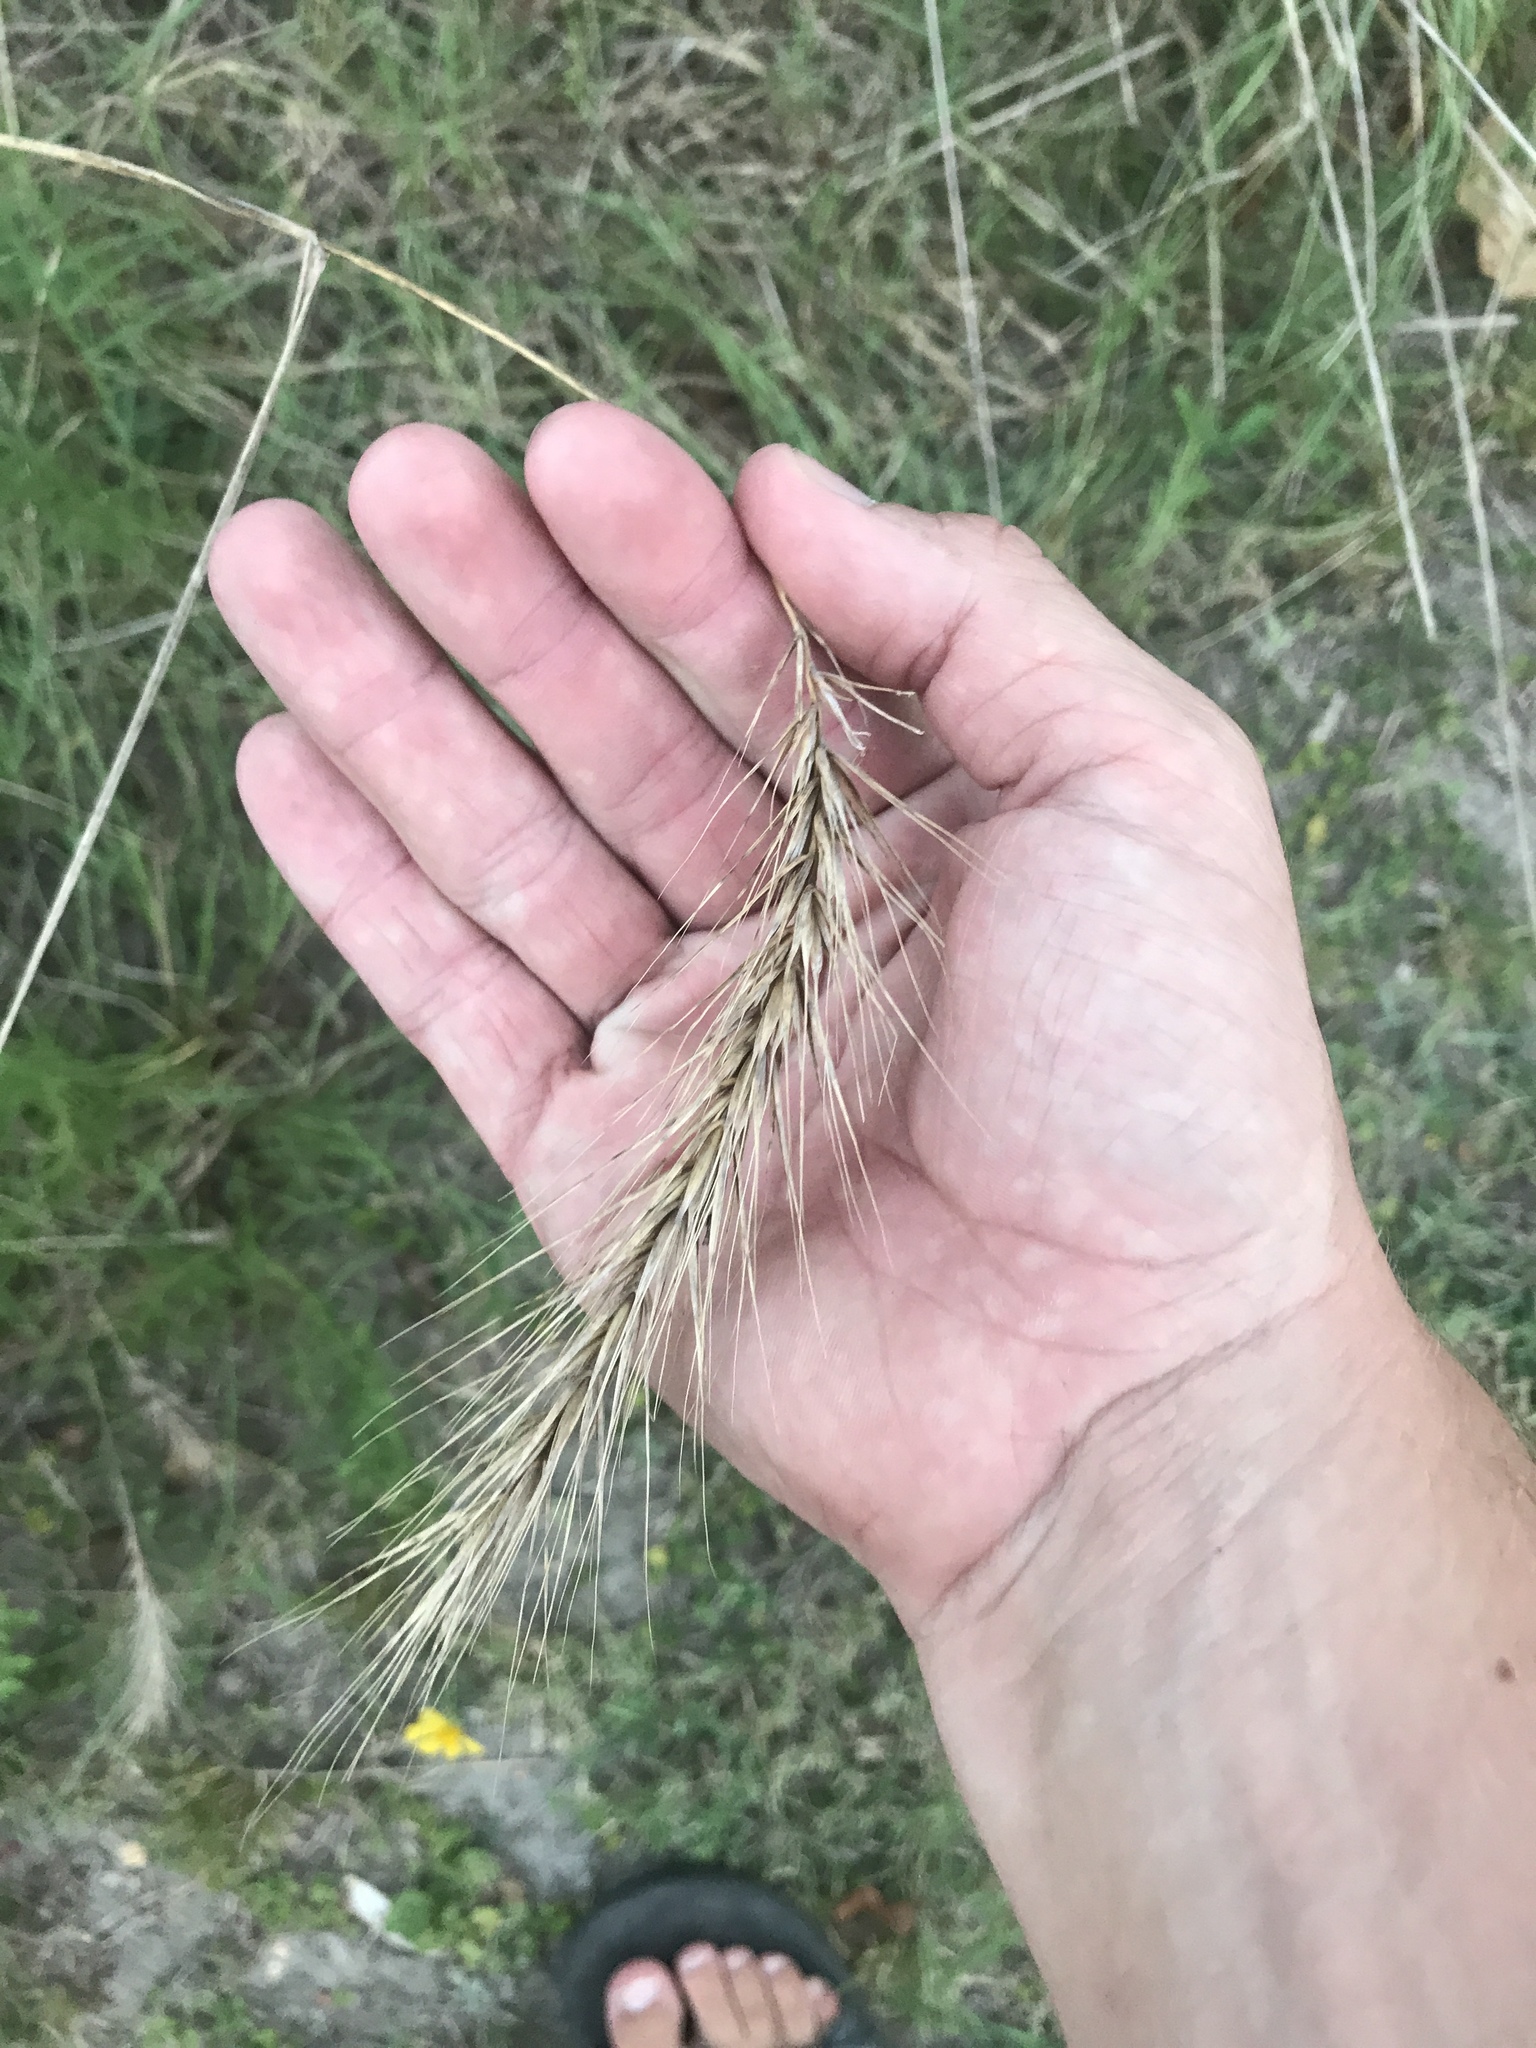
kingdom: Plantae
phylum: Tracheophyta
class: Liliopsida
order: Poales
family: Poaceae
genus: Elymus
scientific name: Elymus canadensis
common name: Canada wild rye
